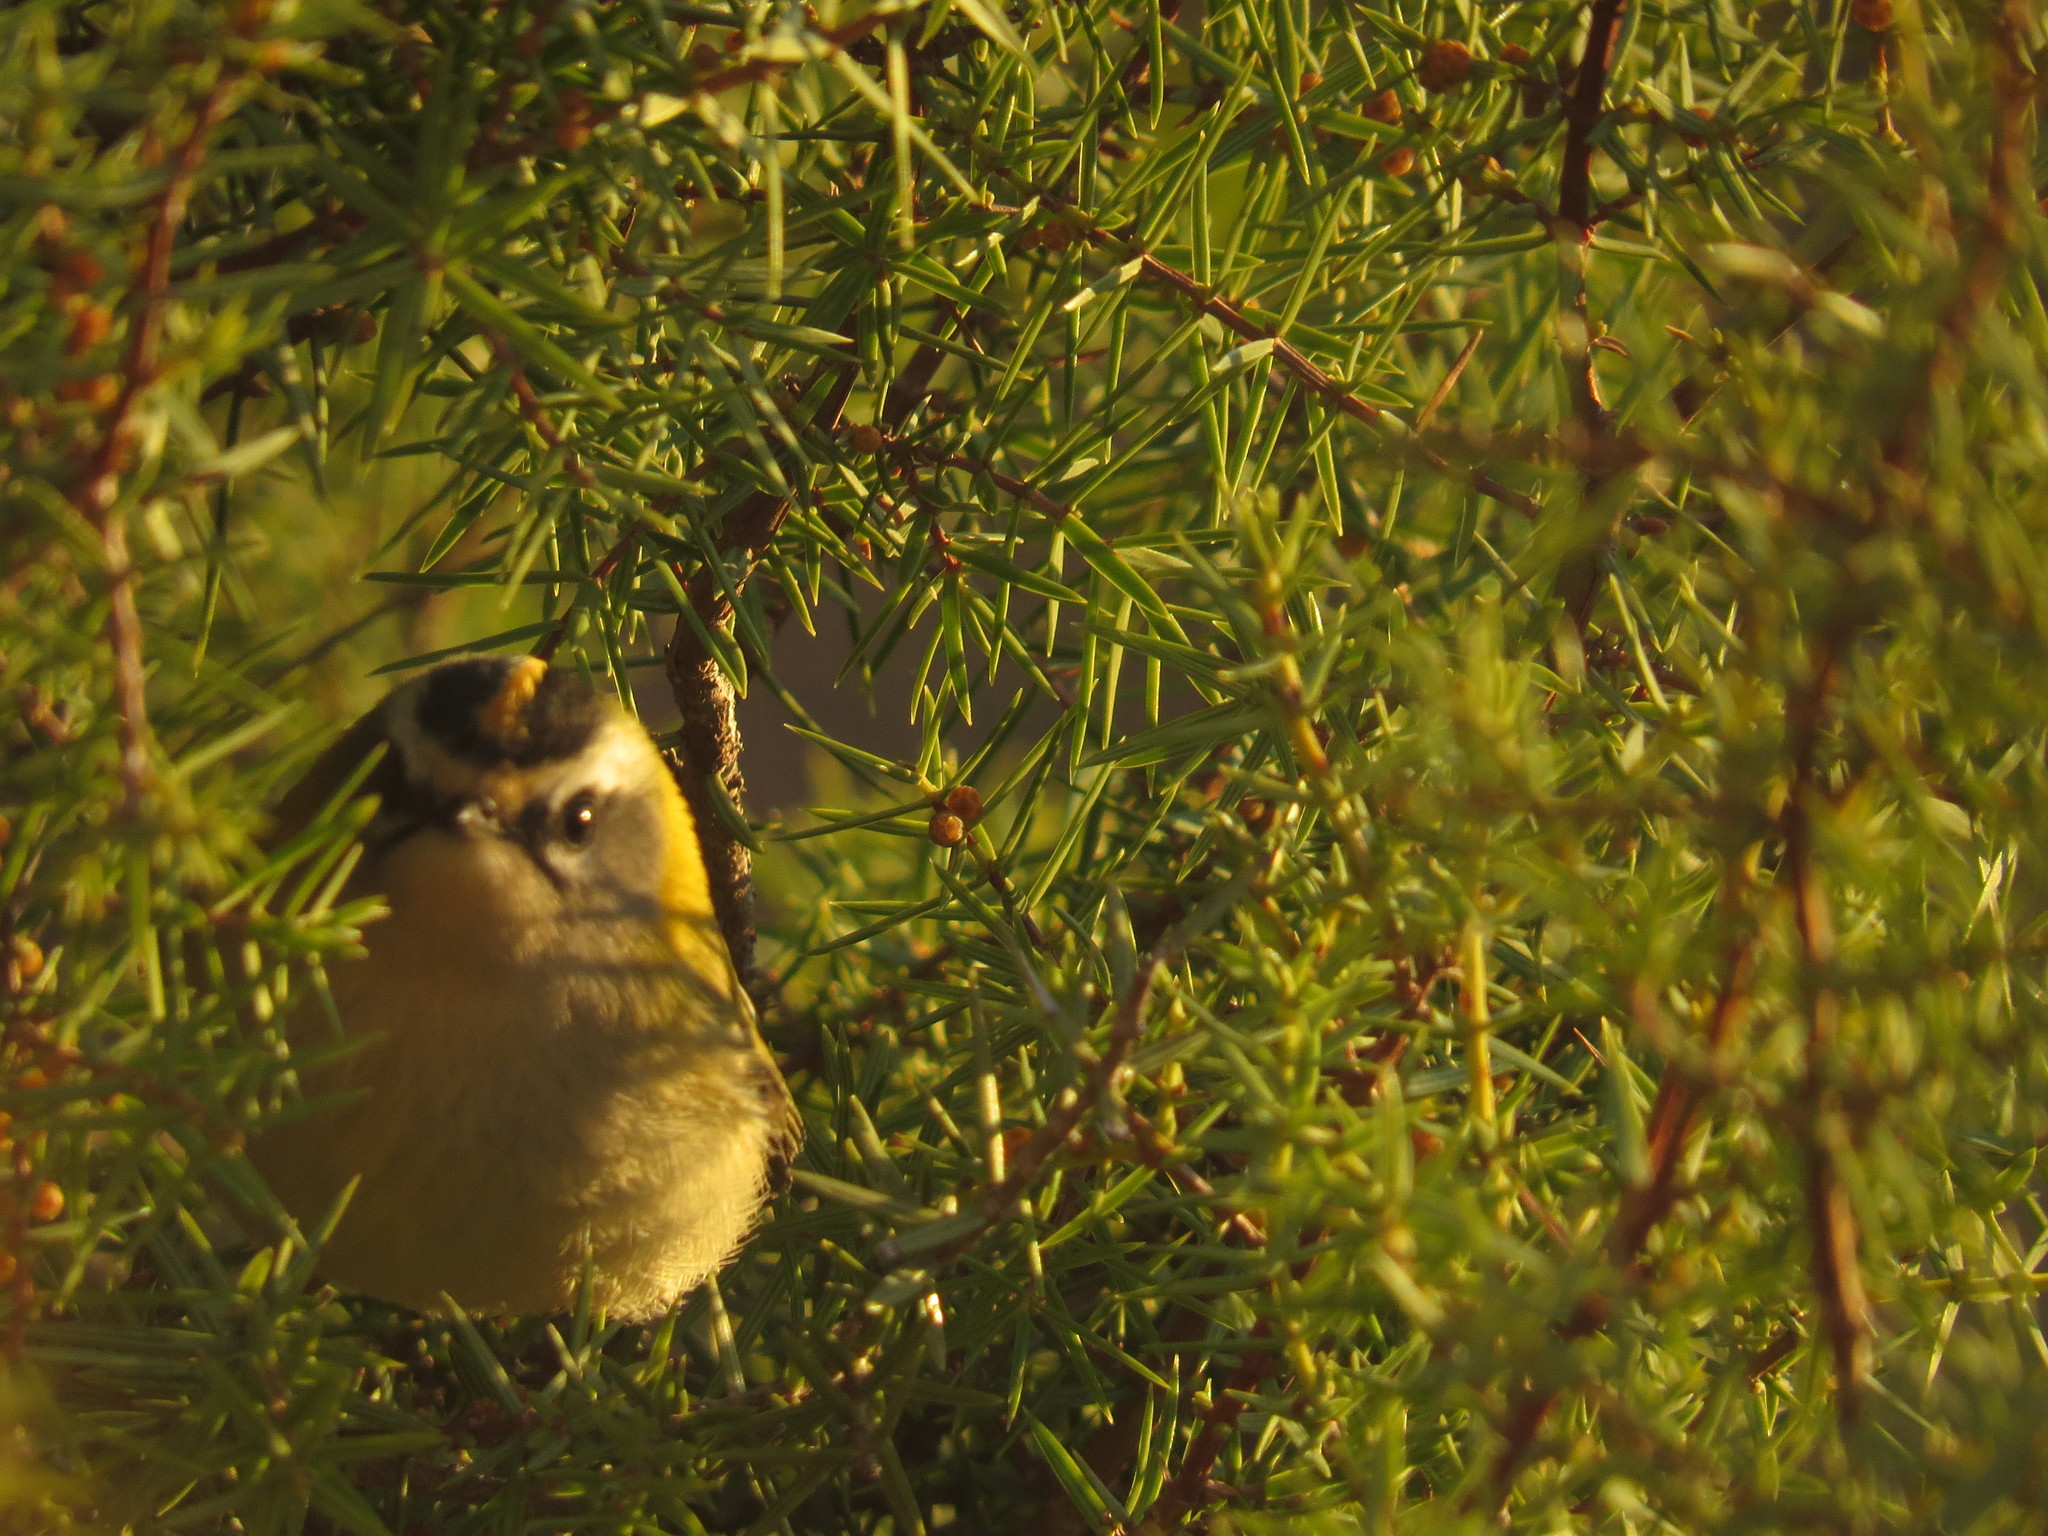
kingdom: Animalia
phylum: Chordata
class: Aves
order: Passeriformes
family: Regulidae
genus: Regulus
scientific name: Regulus ignicapilla
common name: Firecrest
